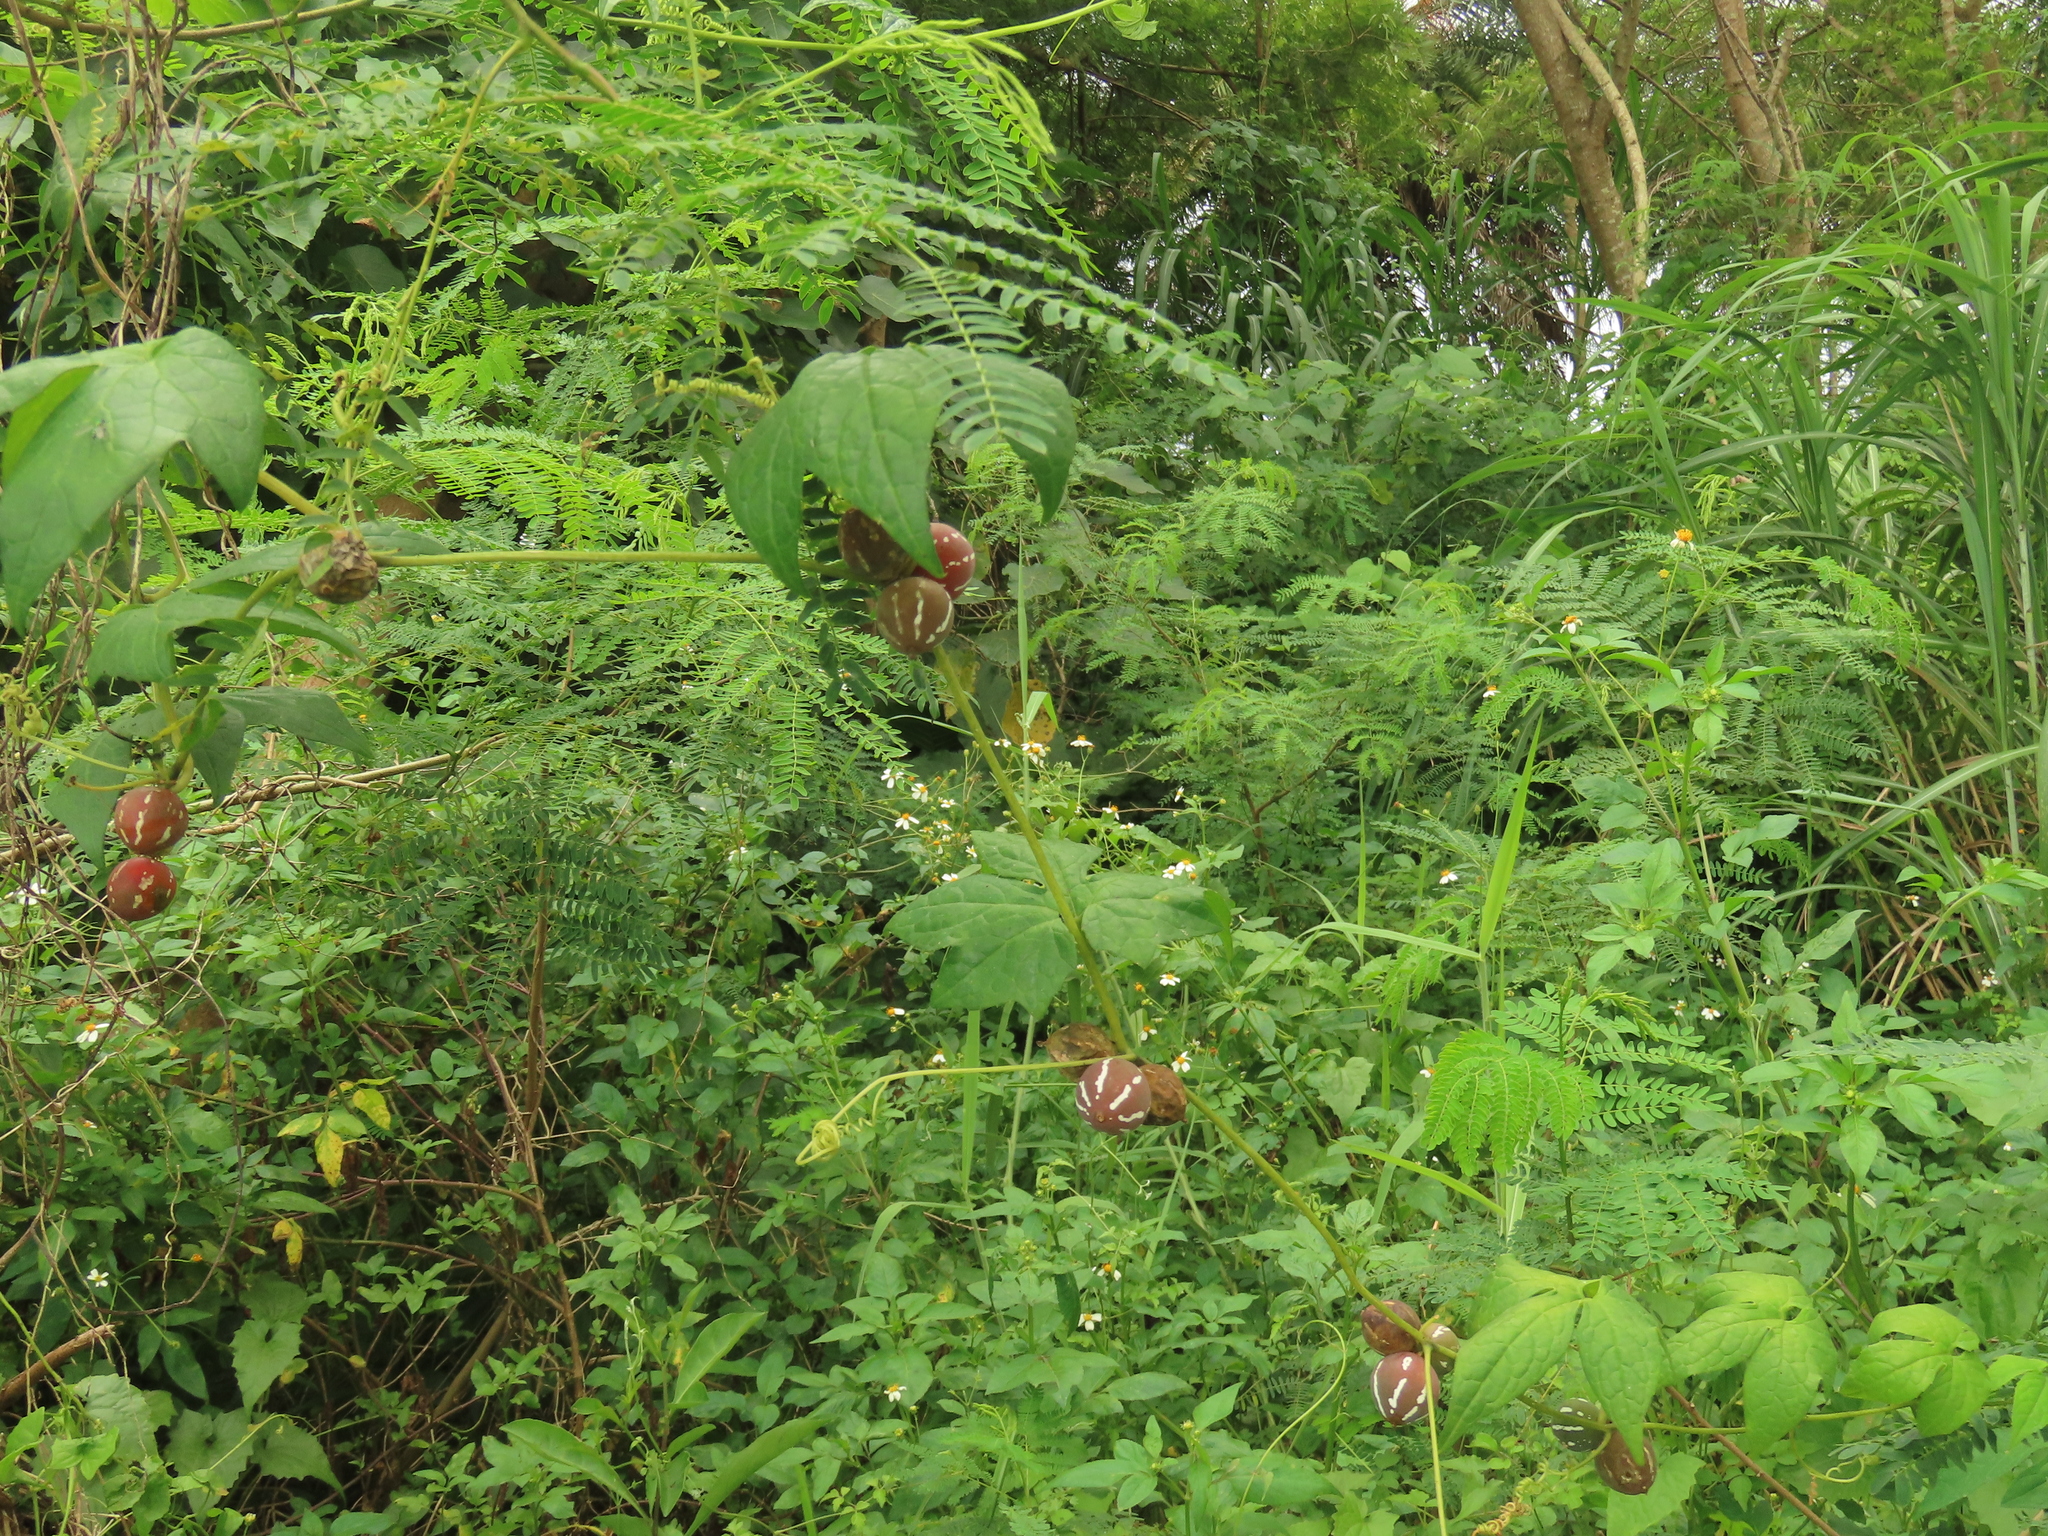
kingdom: Plantae
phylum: Tracheophyta
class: Magnoliopsida
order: Cucurbitales
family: Cucurbitaceae
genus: Diplocyclos
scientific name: Diplocyclos palmatus
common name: Striped-cucumber
